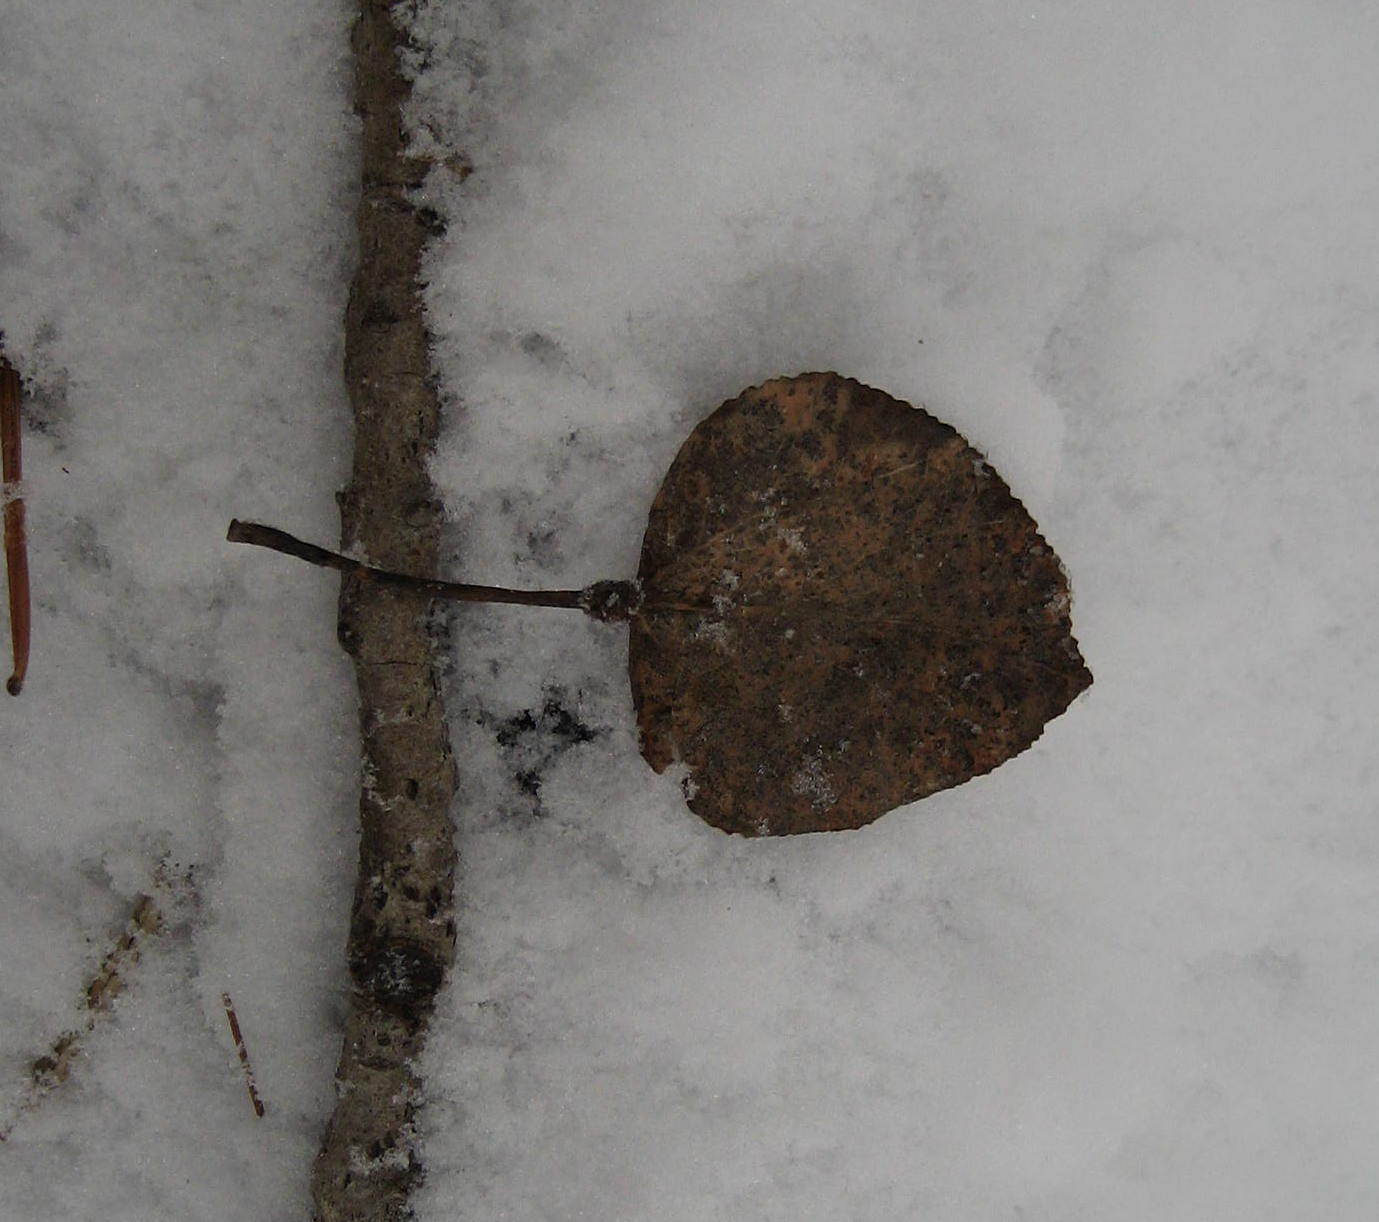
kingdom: Plantae
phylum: Tracheophyta
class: Magnoliopsida
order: Malpighiales
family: Salicaceae
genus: Populus
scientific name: Populus tremuloides
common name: Quaking aspen
